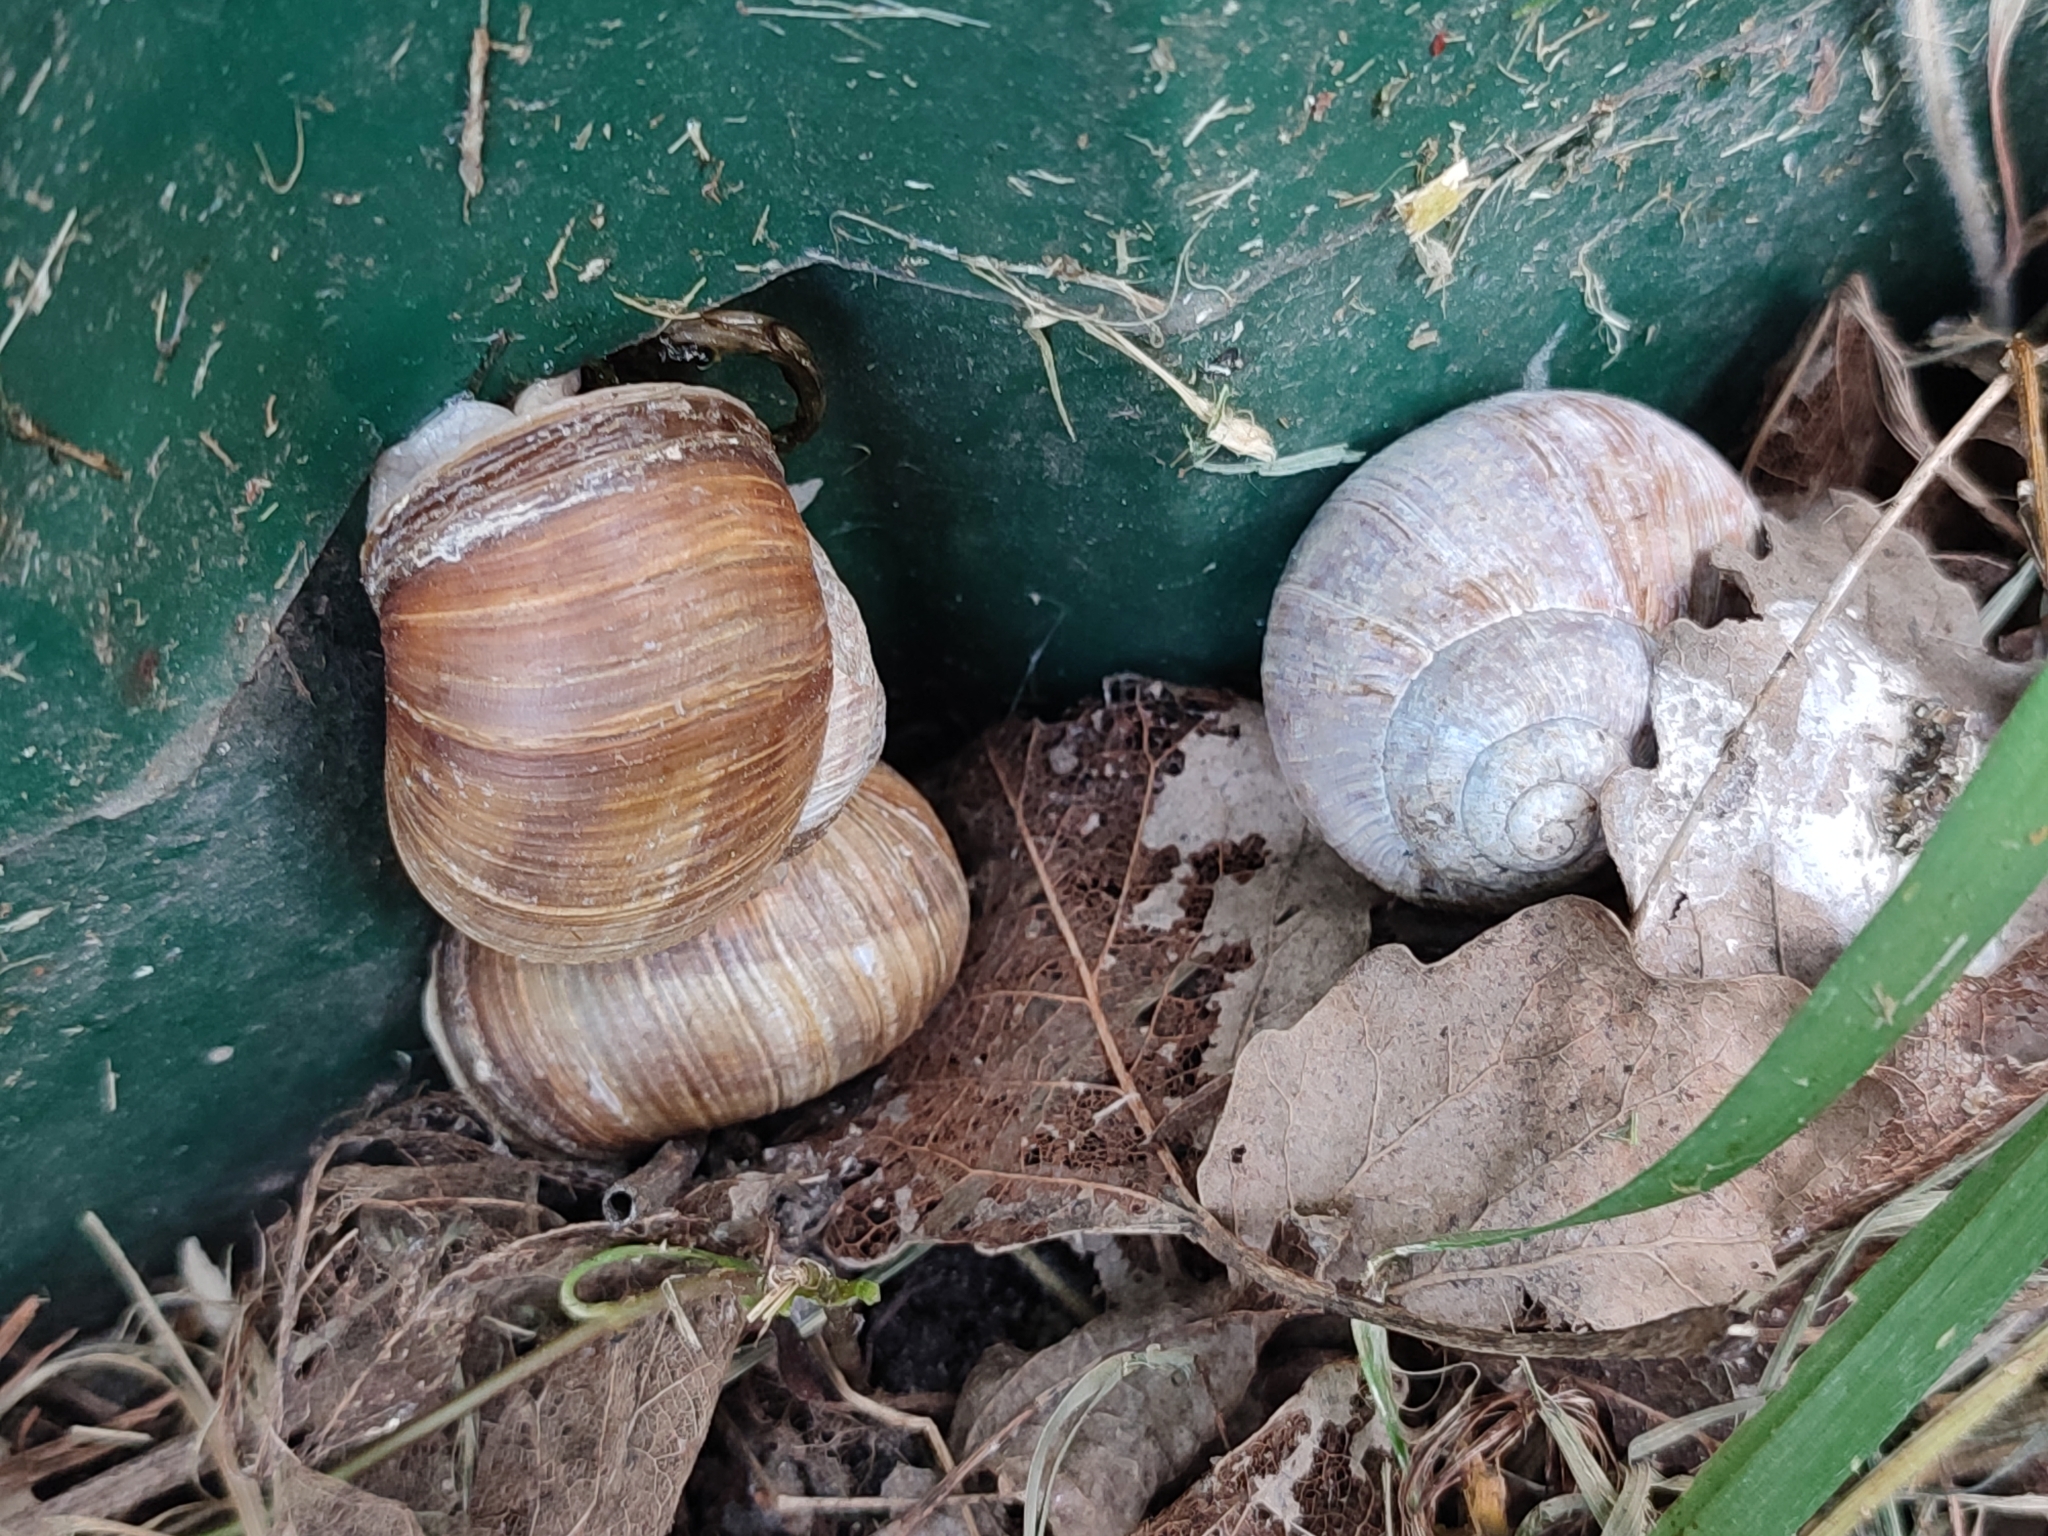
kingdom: Animalia
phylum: Mollusca
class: Gastropoda
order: Stylommatophora
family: Helicidae
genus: Helix
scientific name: Helix pomatia
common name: Roman snail
